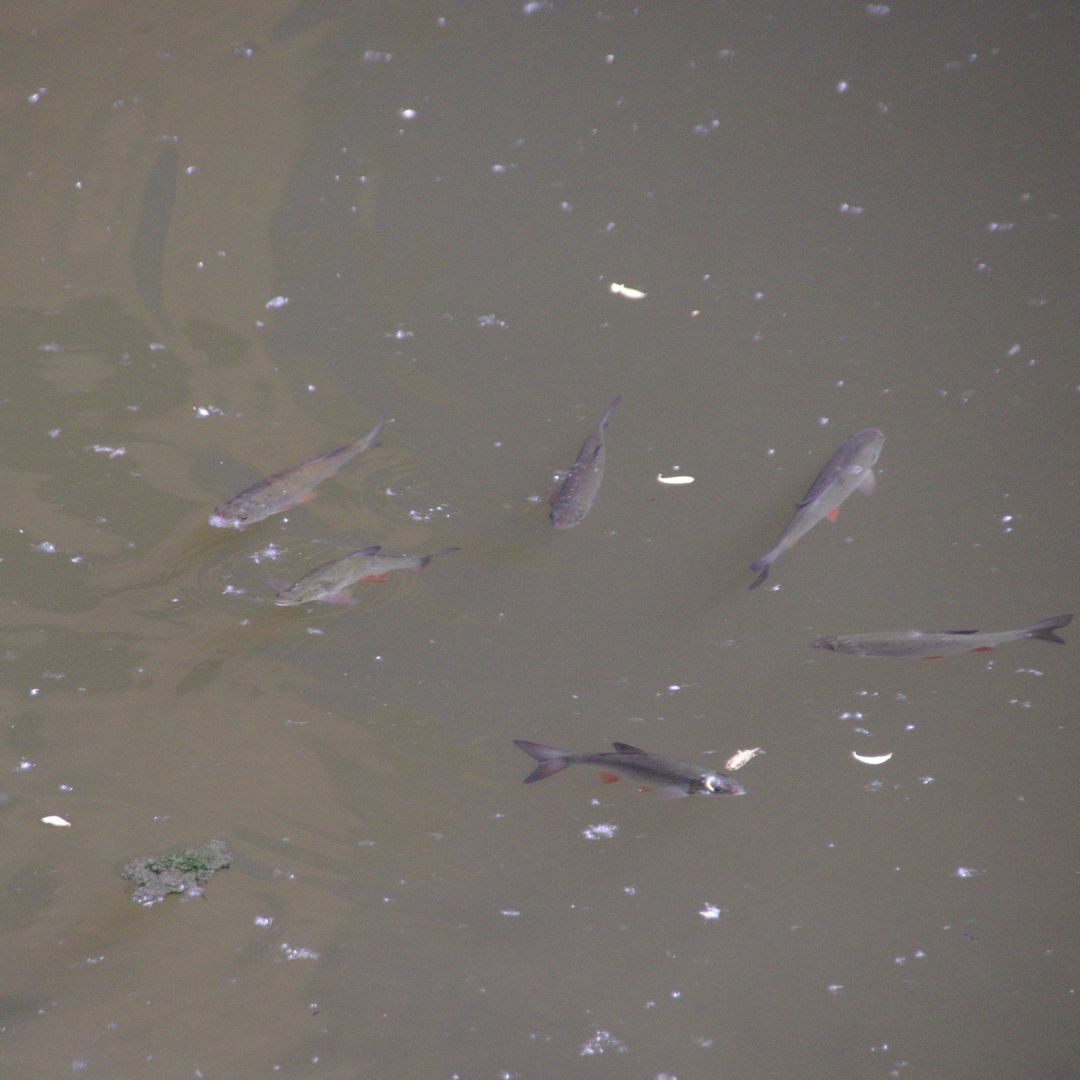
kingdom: Animalia
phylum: Chordata
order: Cypriniformes
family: Cyprinidae
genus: Squalius
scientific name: Squalius cephalus
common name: Chub
